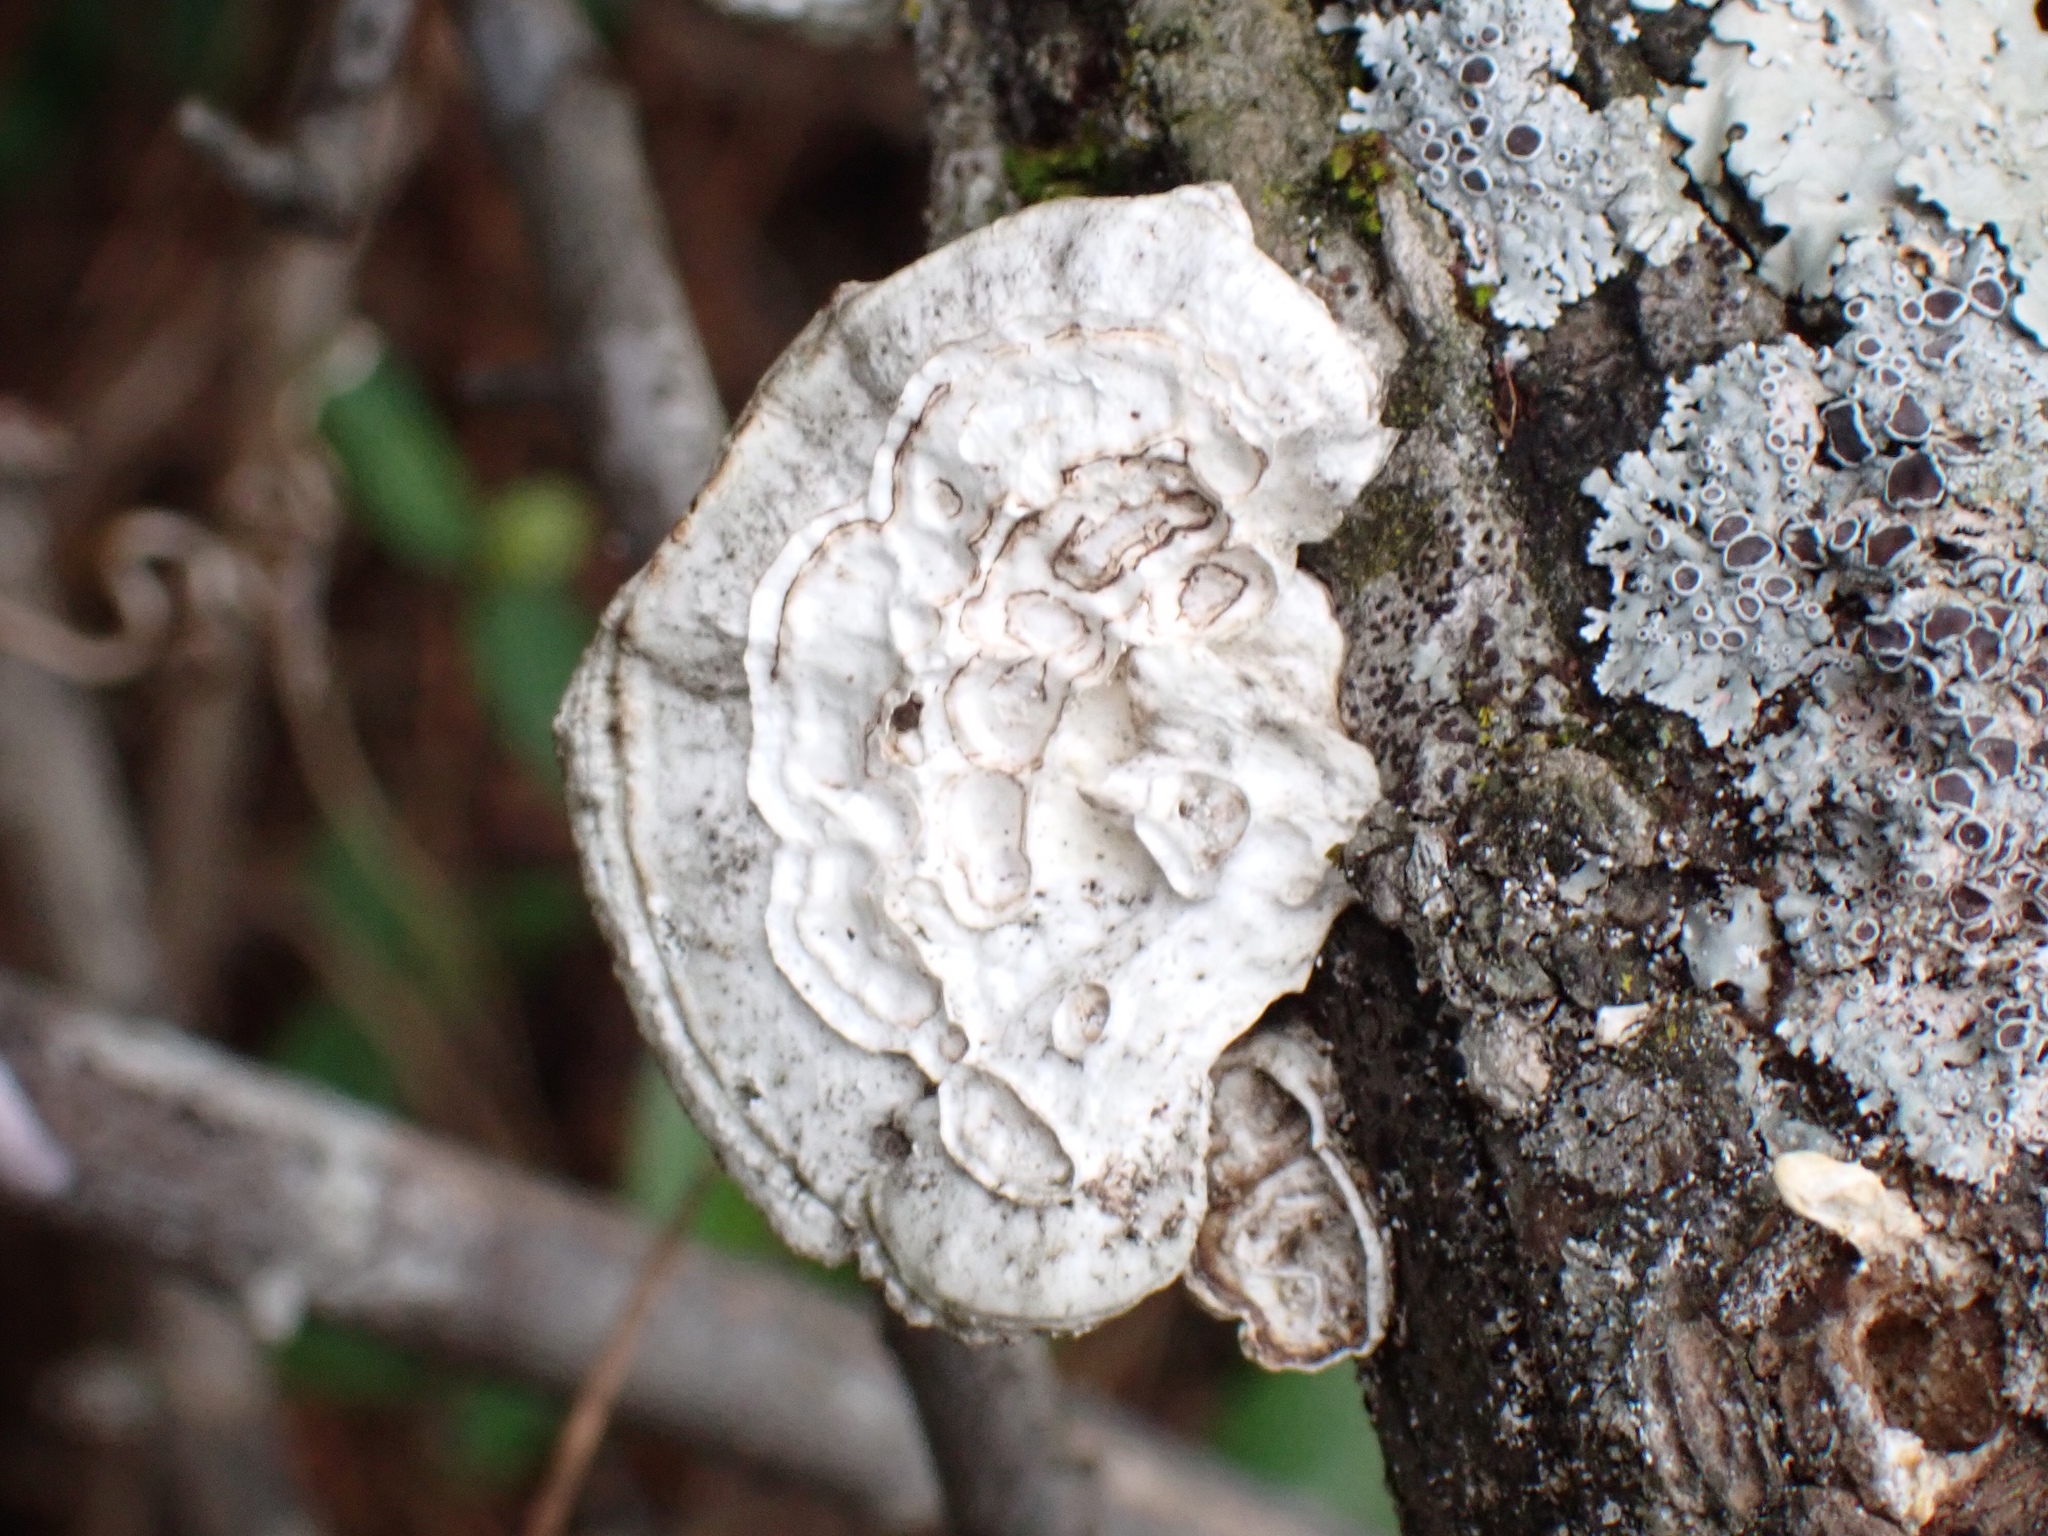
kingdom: Fungi
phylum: Basidiomycota
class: Agaricomycetes
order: Polyporales
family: Polyporaceae
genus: Poronidulus
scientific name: Poronidulus conchifer
